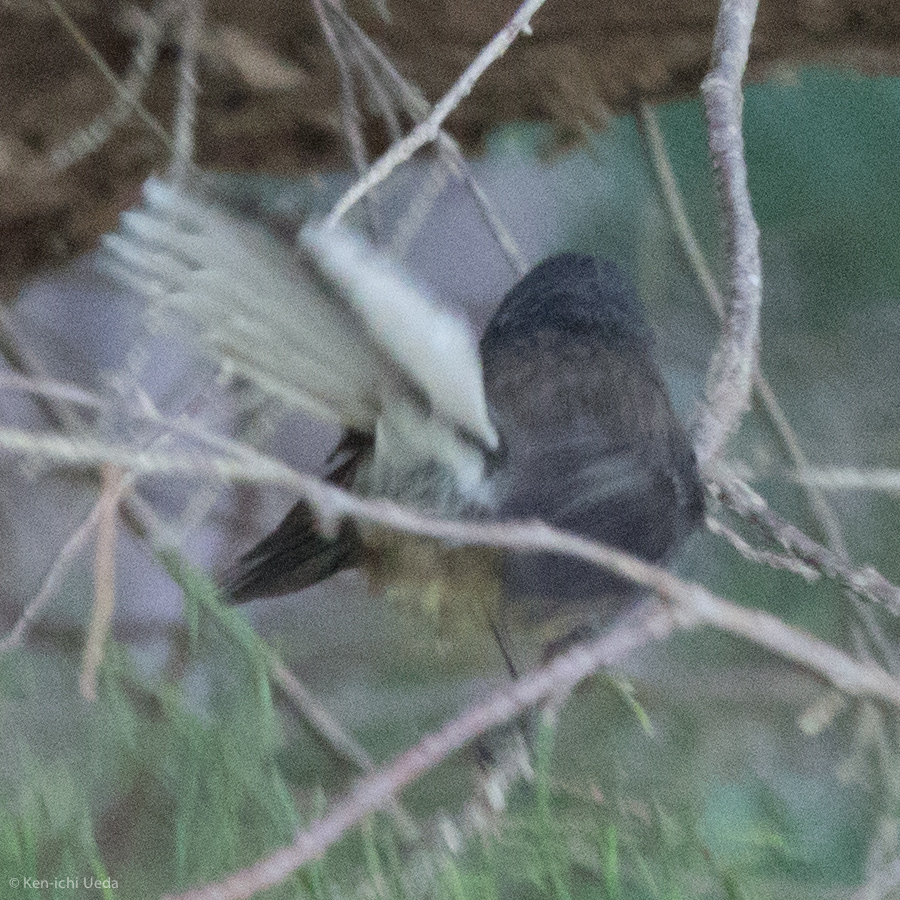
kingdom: Animalia
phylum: Chordata
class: Aves
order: Passeriformes
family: Rhipiduridae
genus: Rhipidura
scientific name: Rhipidura fuliginosa
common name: New zealand fantail
